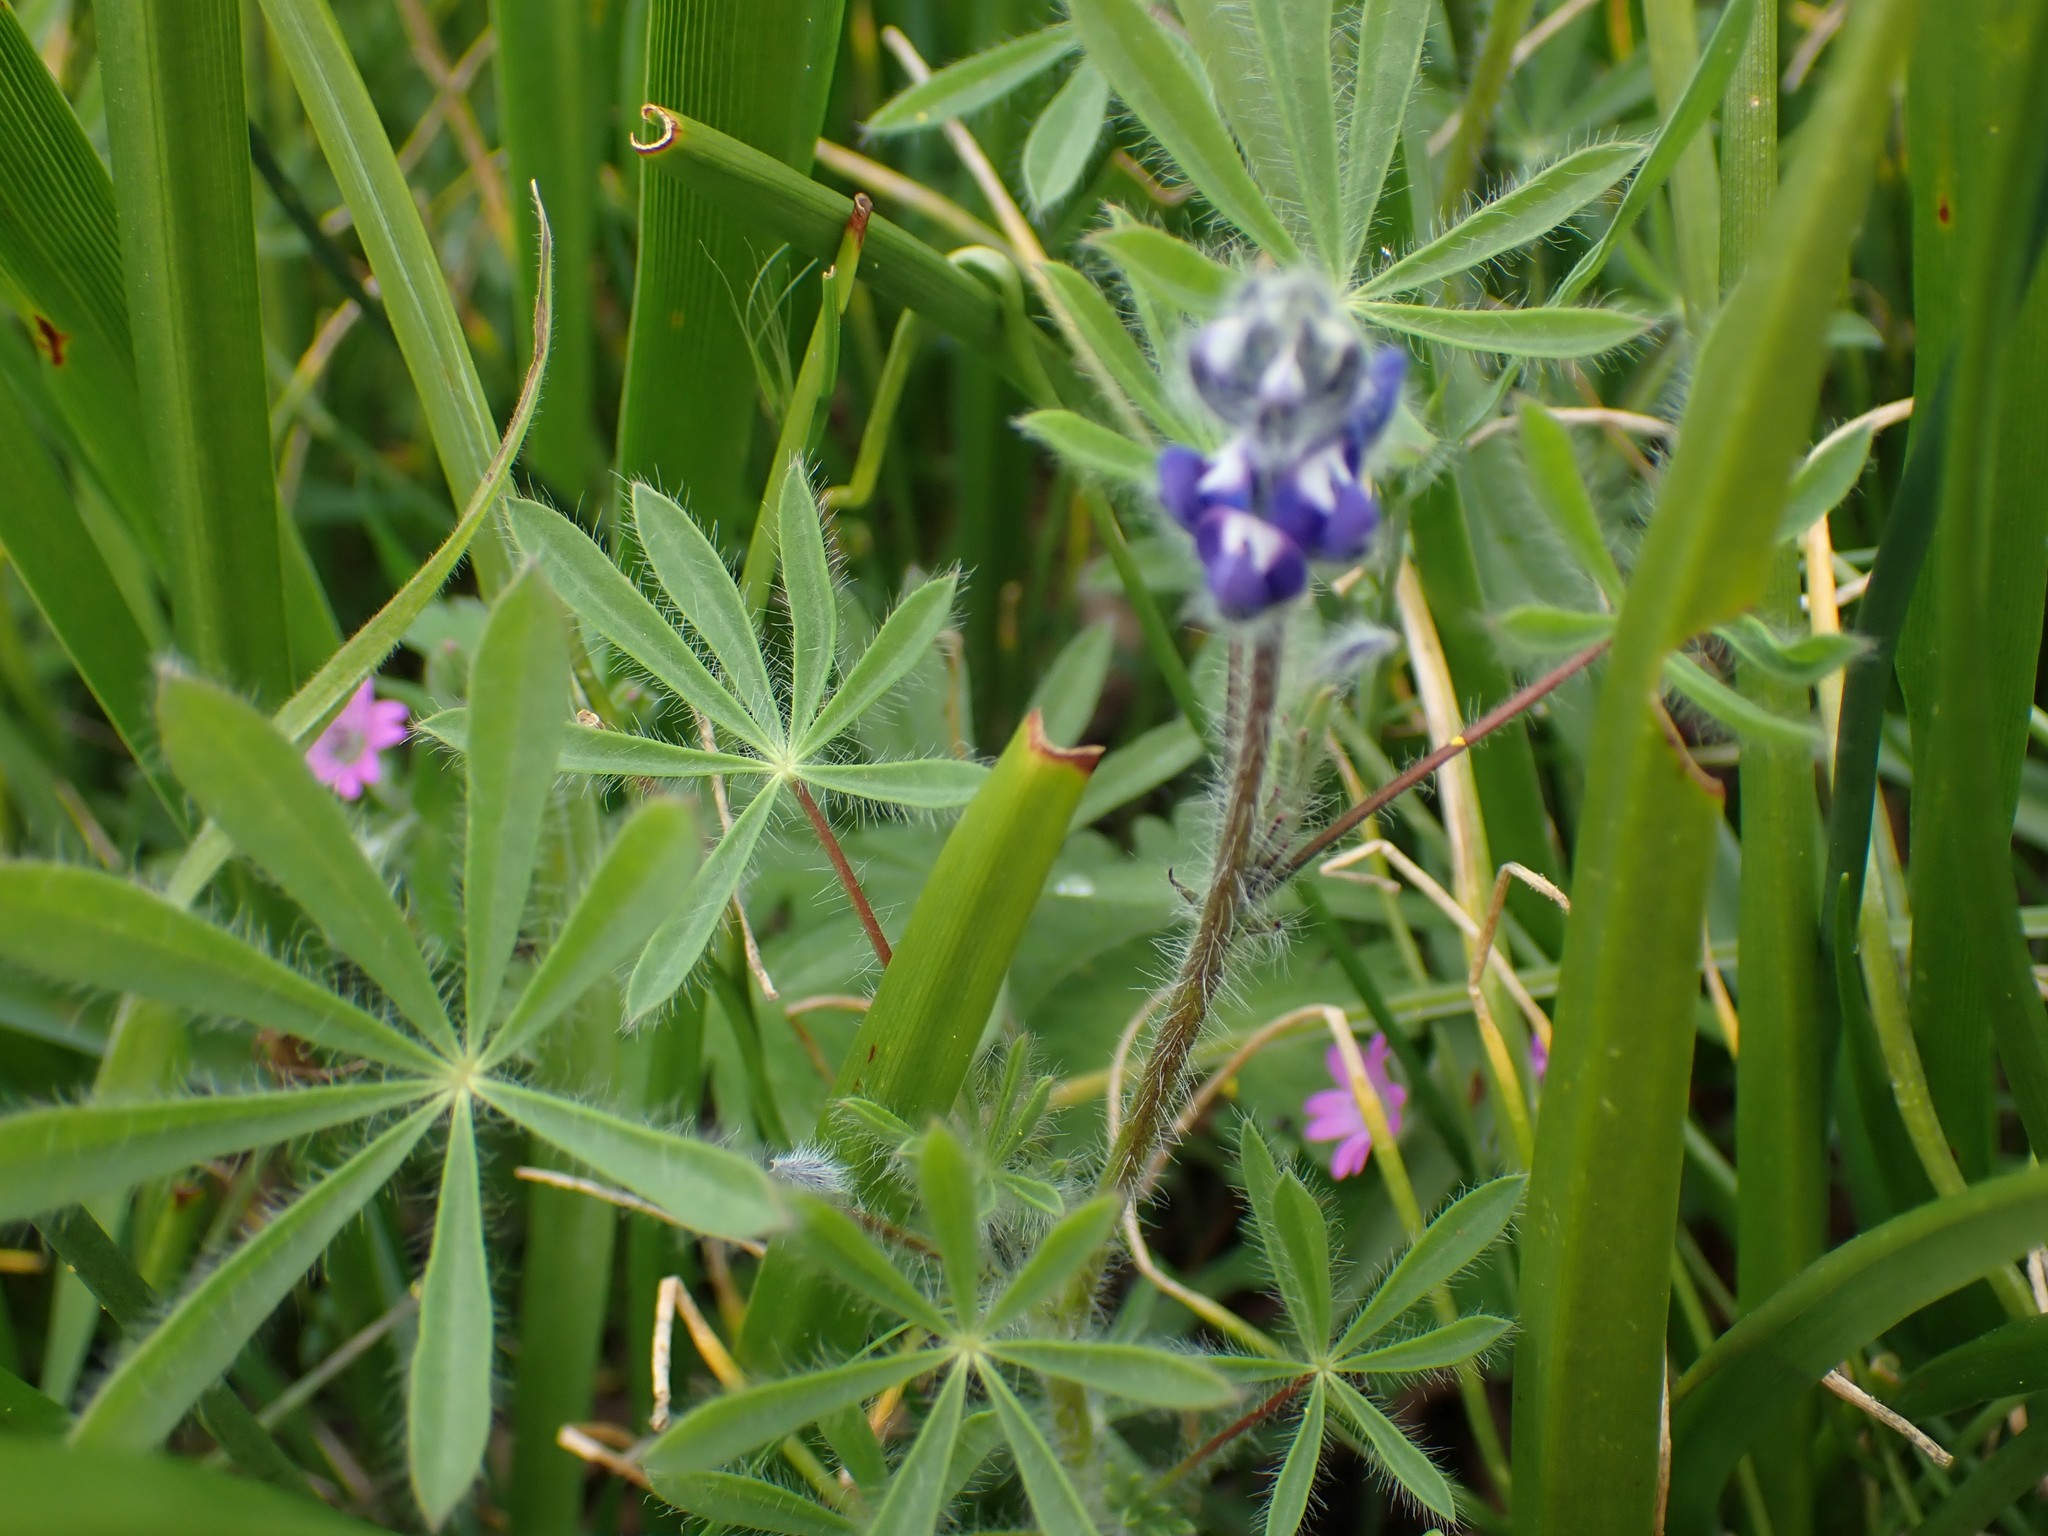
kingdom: Plantae
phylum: Tracheophyta
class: Magnoliopsida
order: Fabales
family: Fabaceae
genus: Lupinus
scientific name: Lupinus bicolor
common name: Miniature lupine
